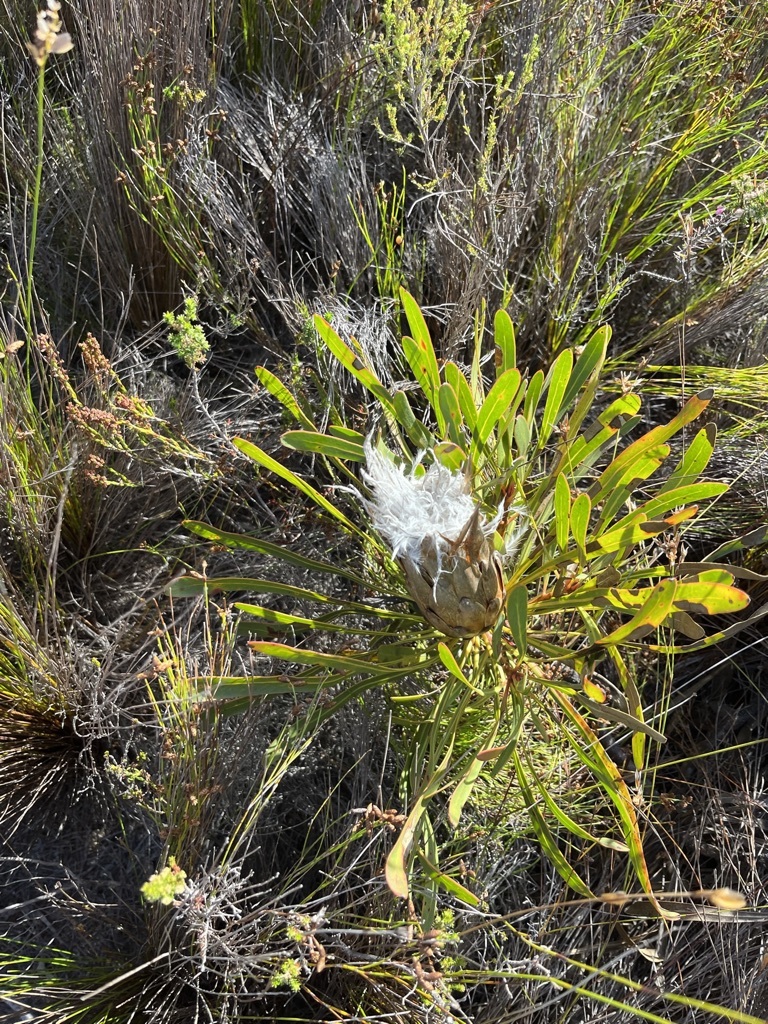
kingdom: Plantae
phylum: Tracheophyta
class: Magnoliopsida
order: Proteales
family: Proteaceae
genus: Protea
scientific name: Protea longifolia
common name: Long-leaf sugarbush
